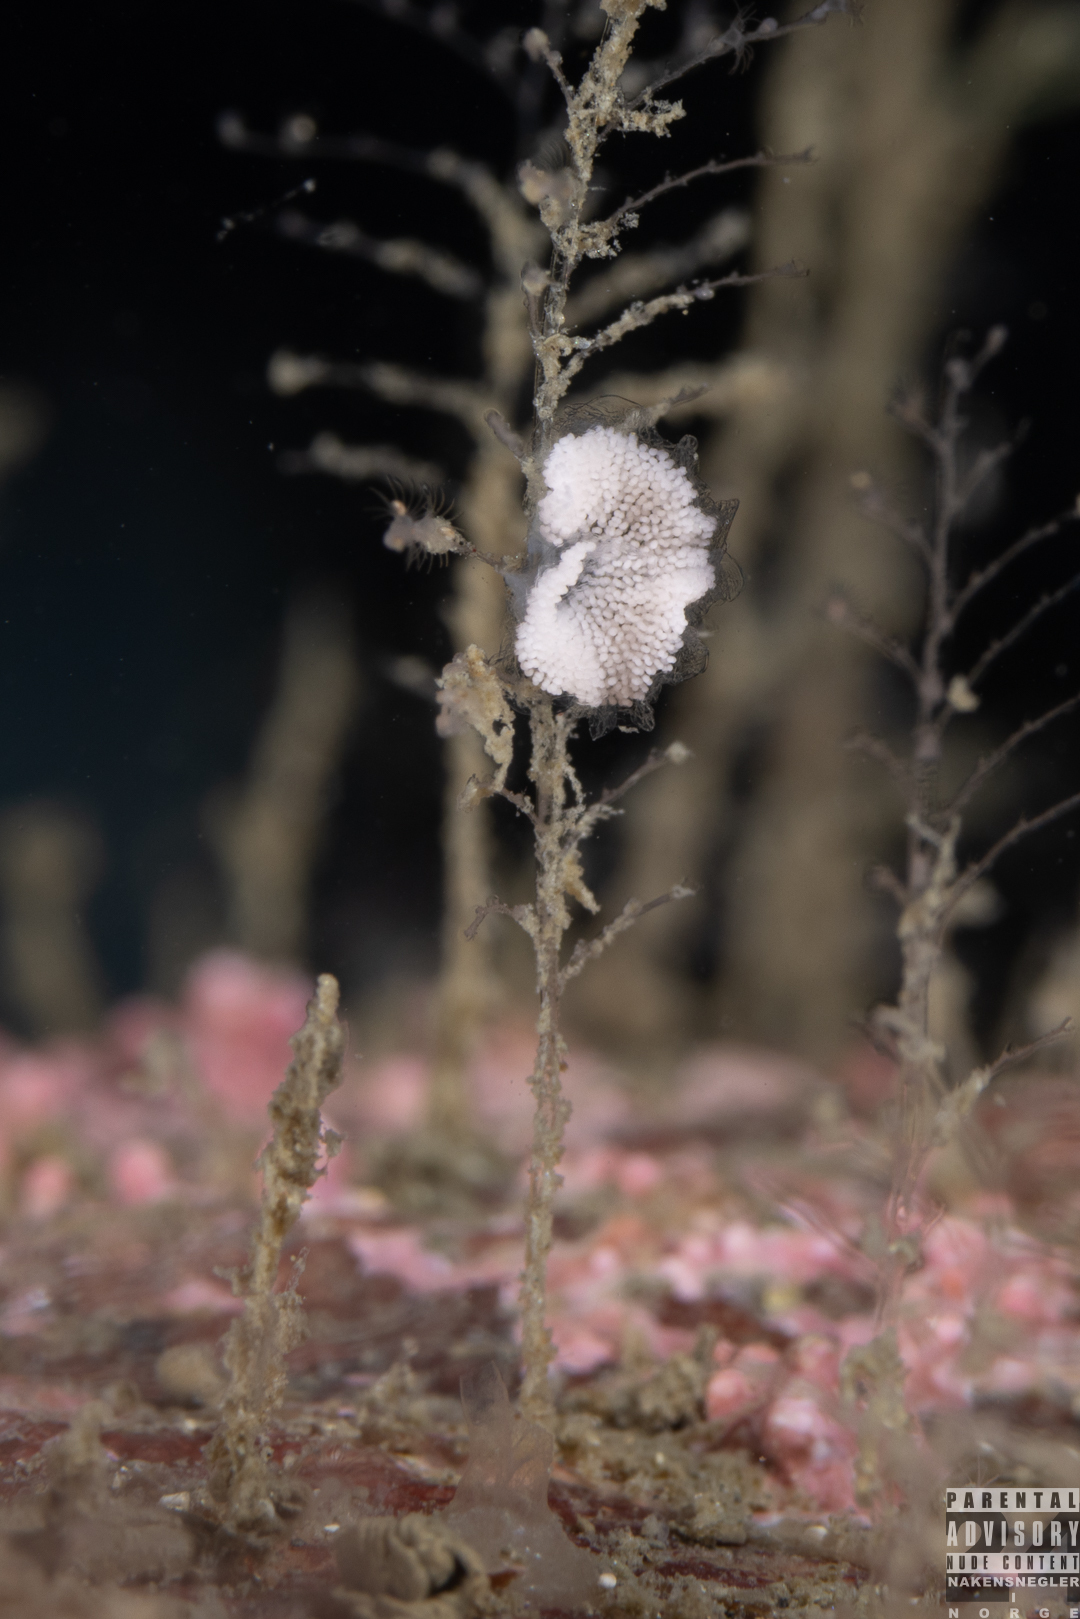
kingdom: Animalia
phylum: Mollusca
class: Gastropoda
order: Nudibranchia
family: Eubranchidae
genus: Eubranchus
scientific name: Eubranchus vittatus
